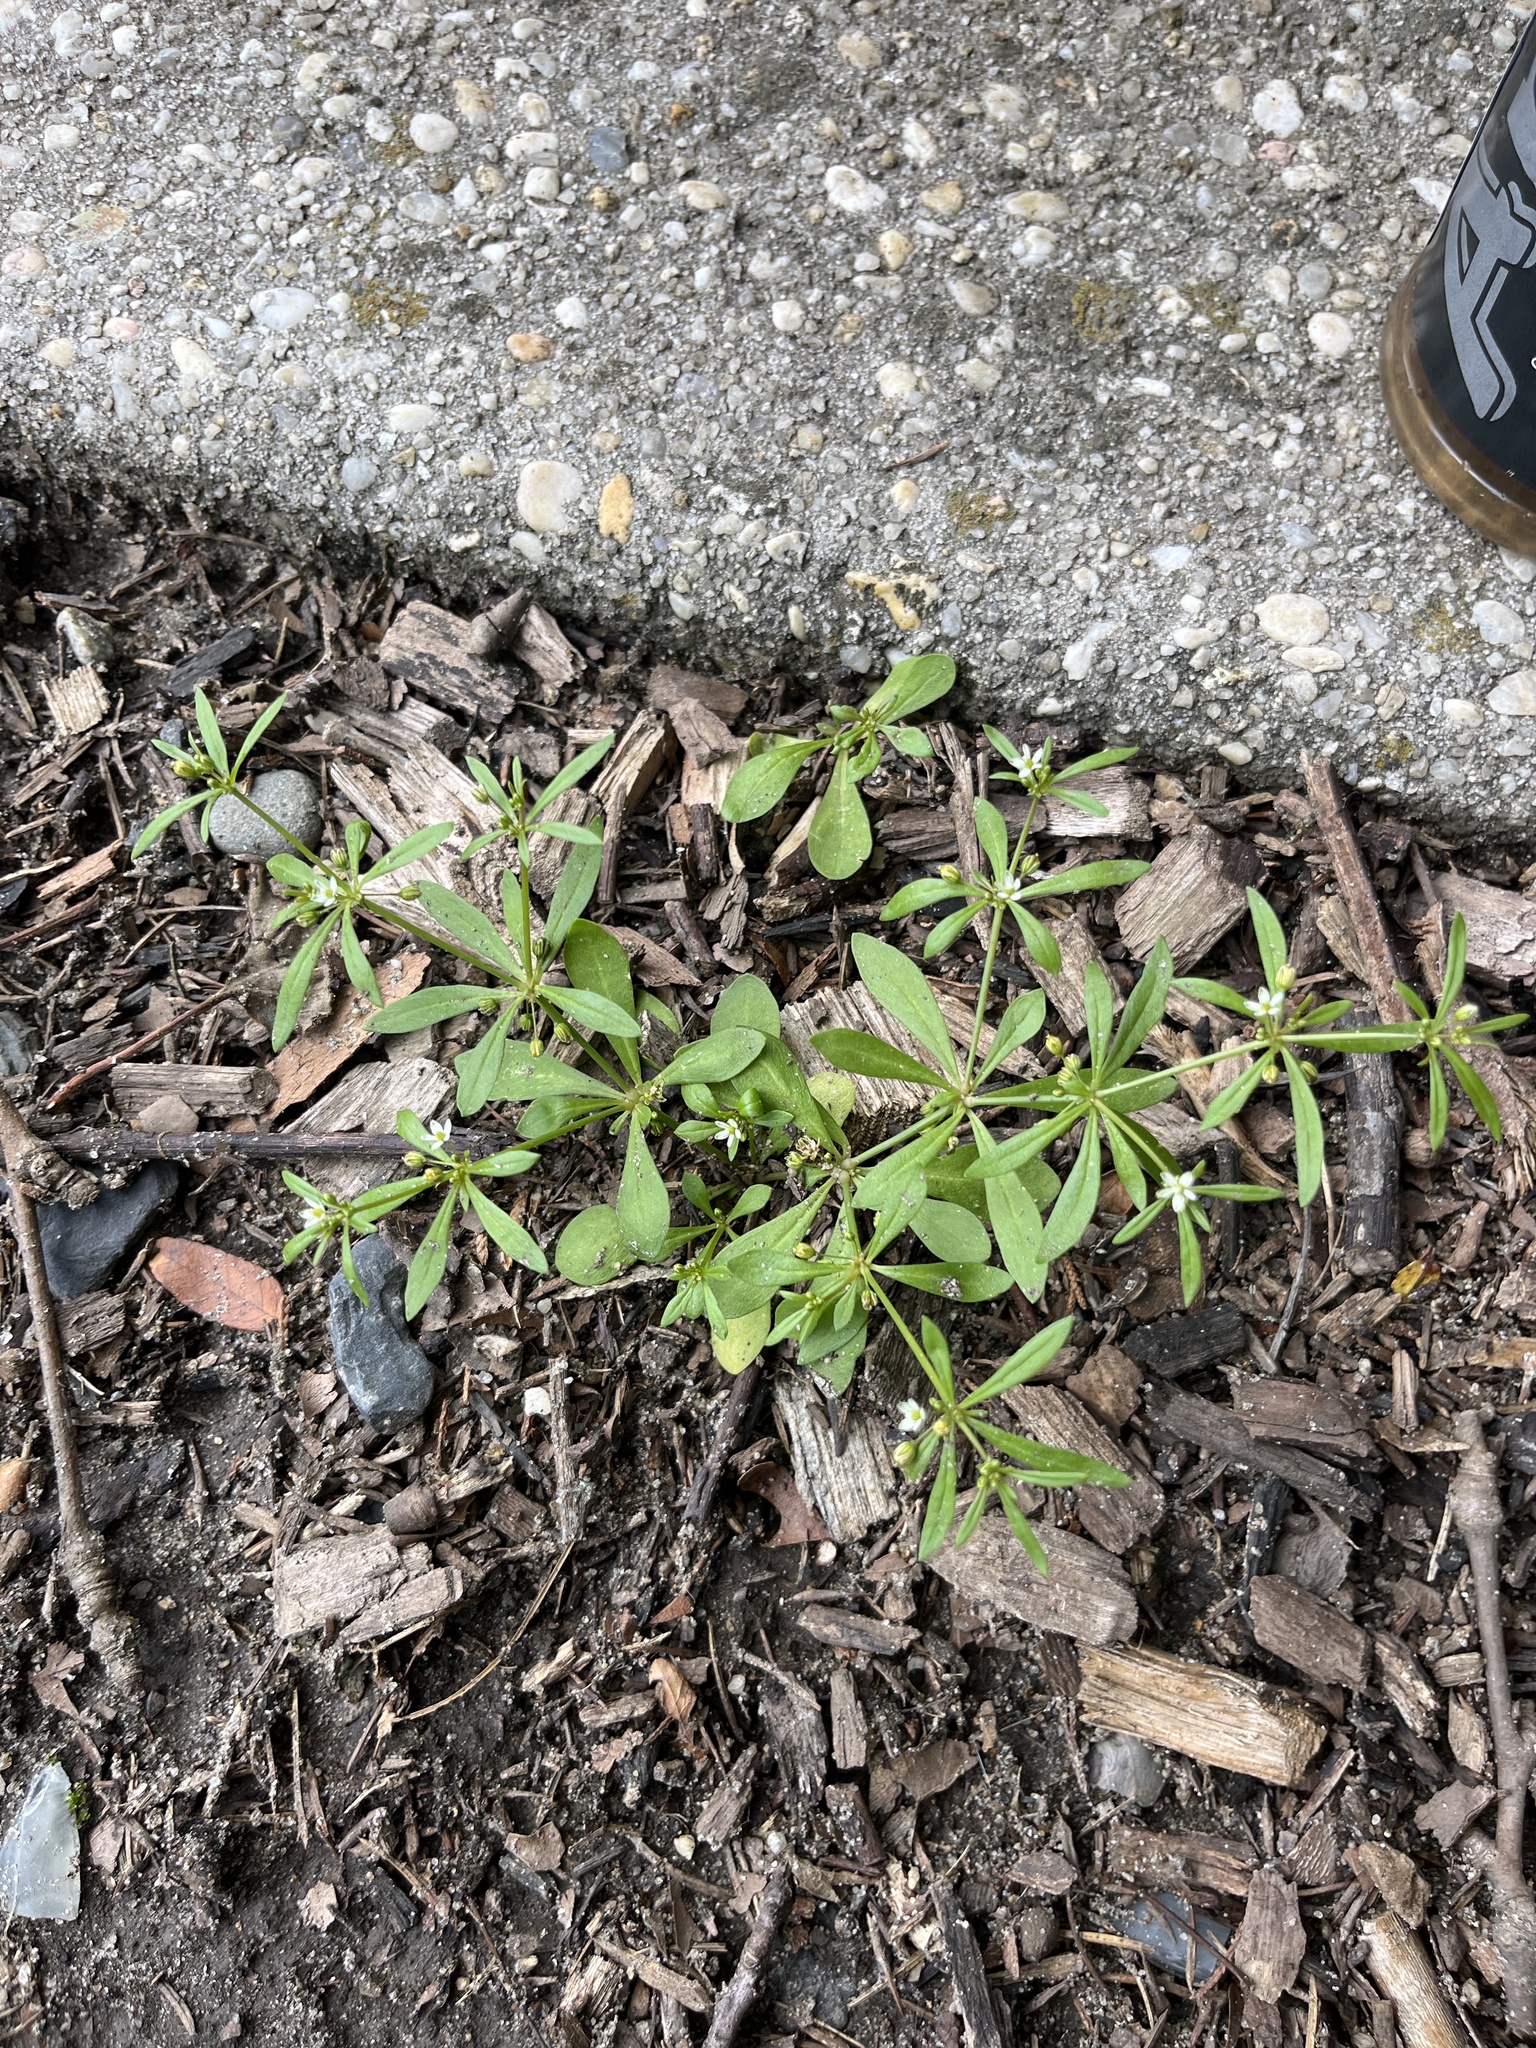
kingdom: Plantae
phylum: Tracheophyta
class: Magnoliopsida
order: Caryophyllales
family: Molluginaceae
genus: Mollugo
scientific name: Mollugo verticillata
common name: Green carpetweed
